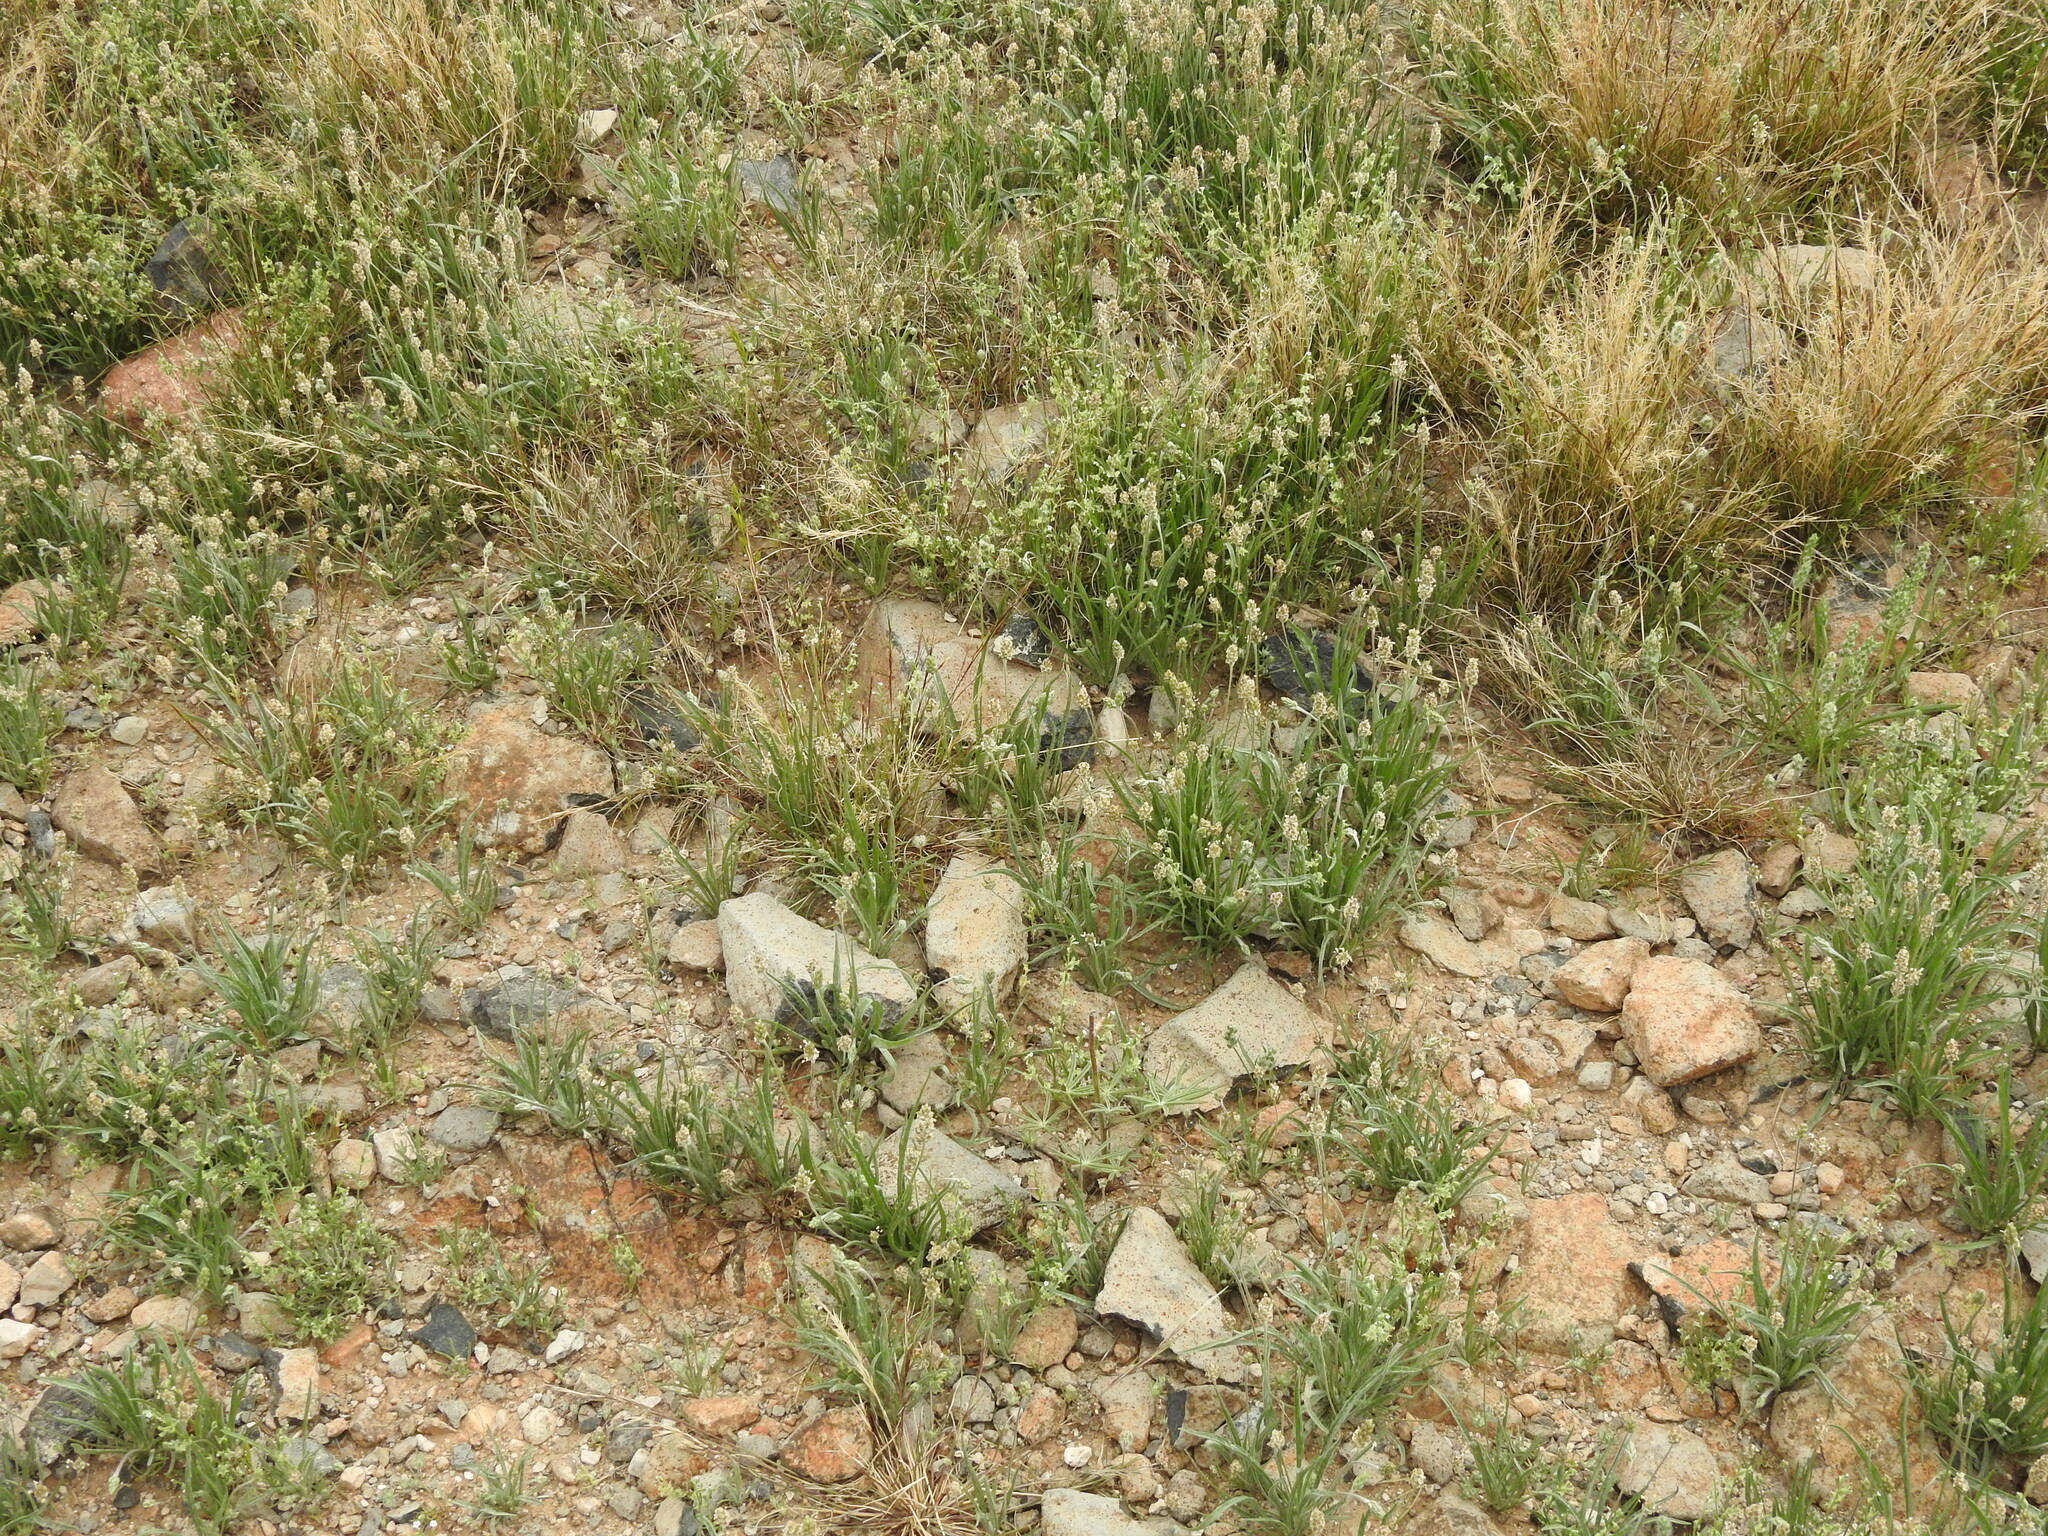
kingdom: Plantae
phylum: Tracheophyta
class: Magnoliopsida
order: Lamiales
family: Plantaginaceae
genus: Plantago
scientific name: Plantago ovata
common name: Blond plantain
